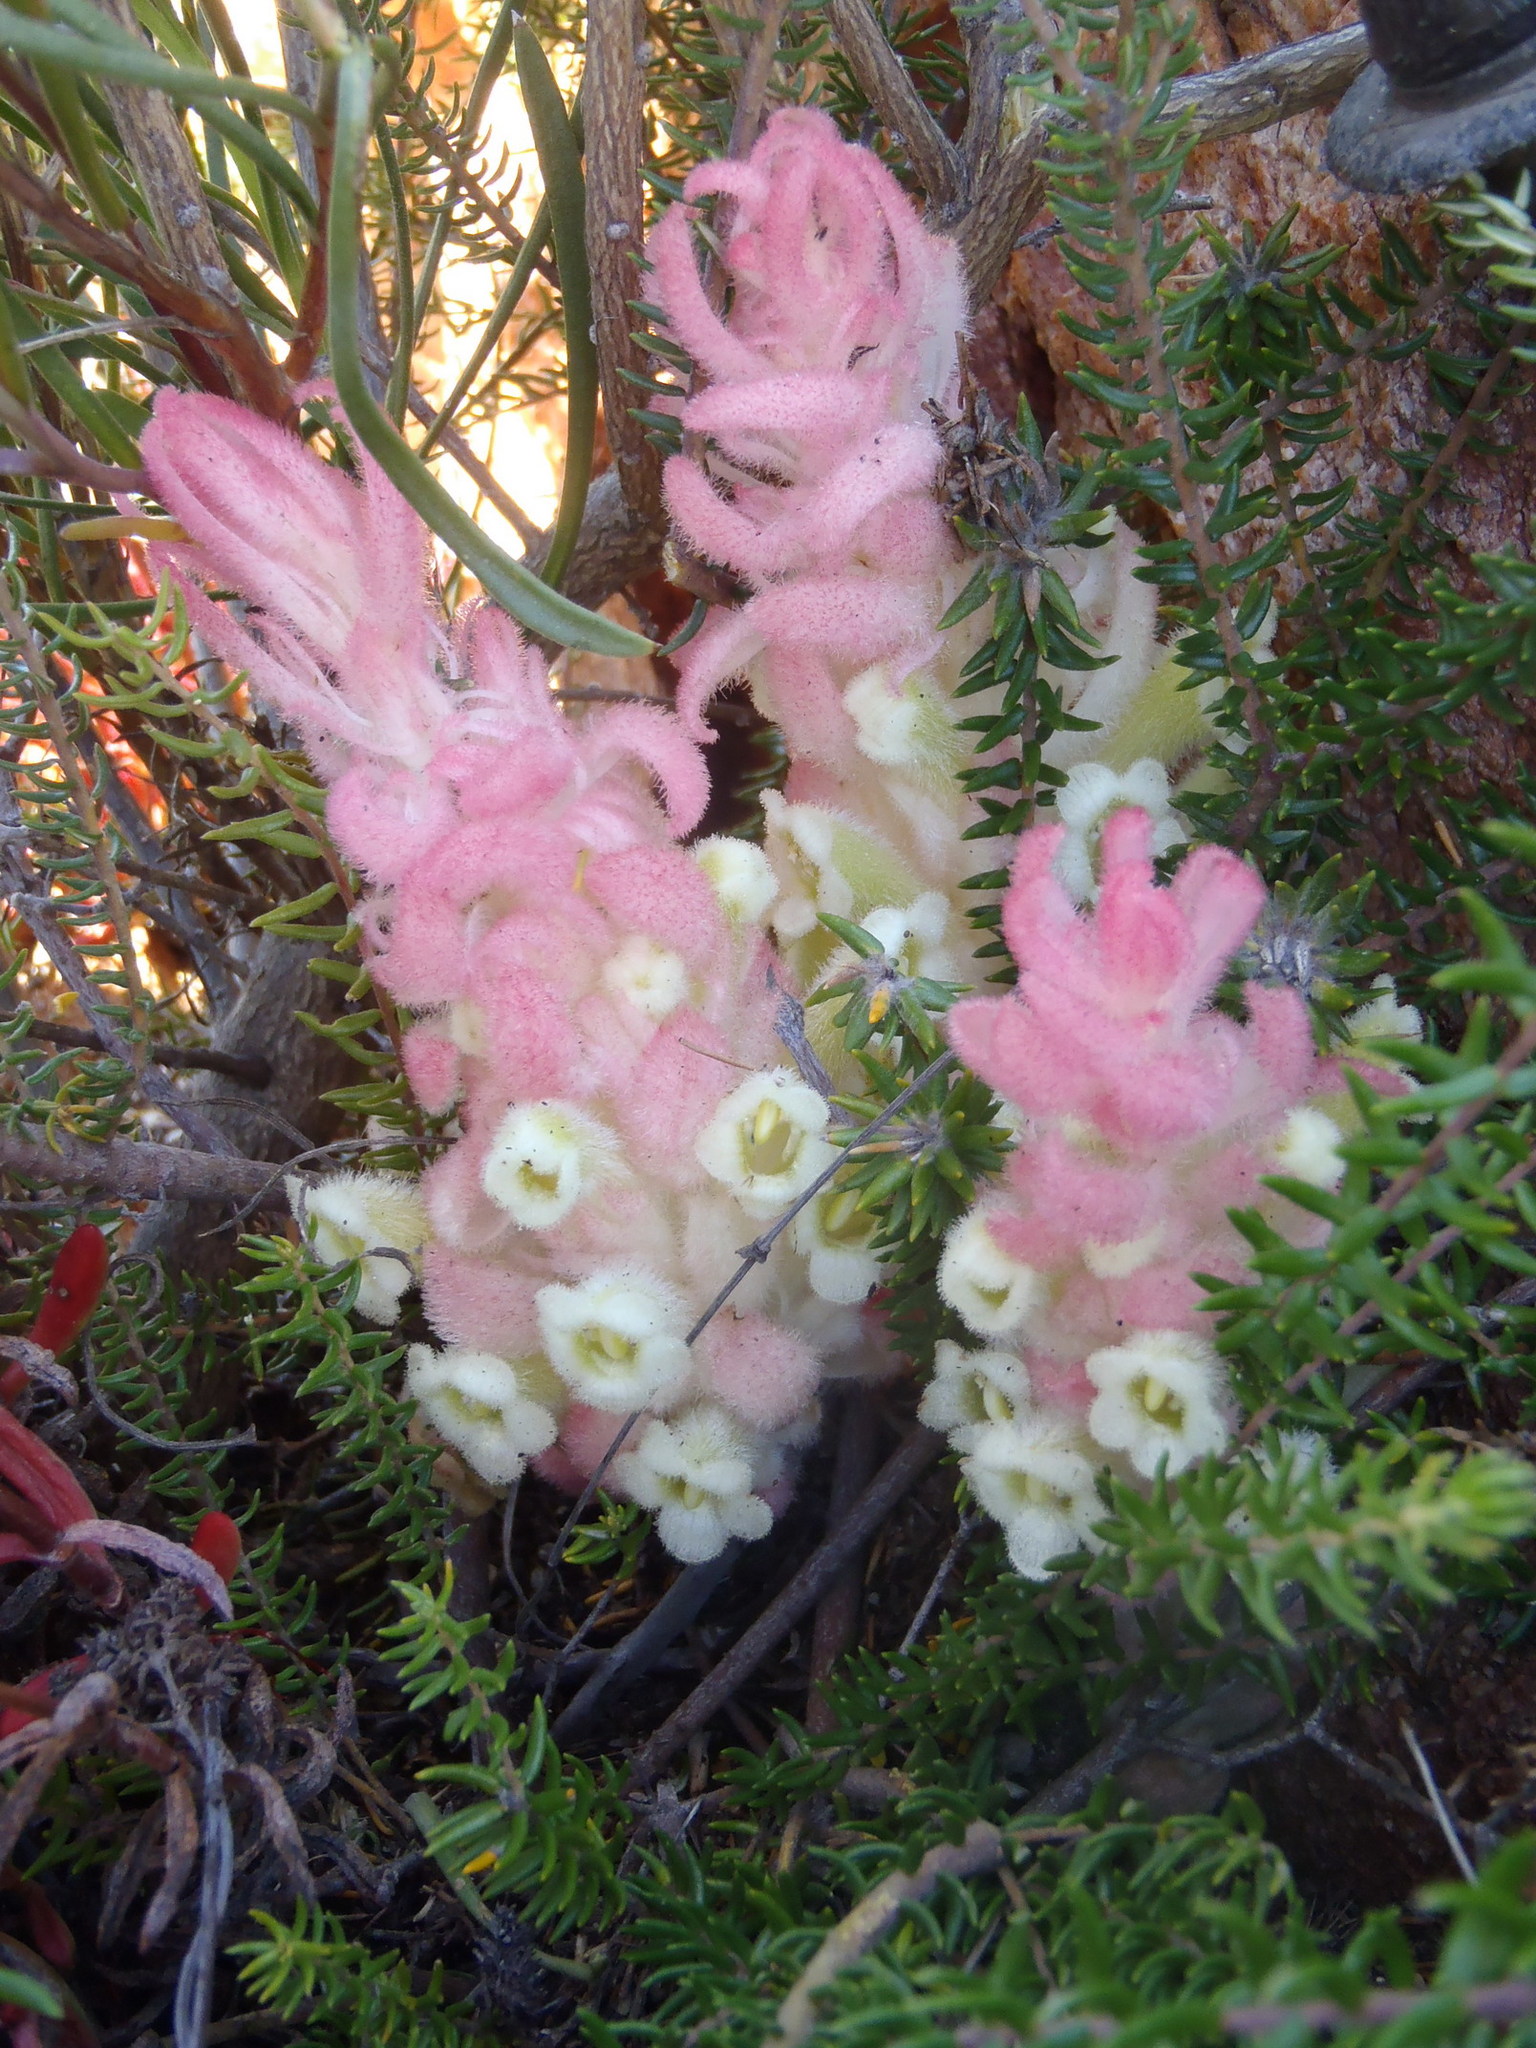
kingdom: Plantae
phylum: Tracheophyta
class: Magnoliopsida
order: Lamiales
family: Orobanchaceae
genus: Harveya
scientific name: Harveya roseoalba
